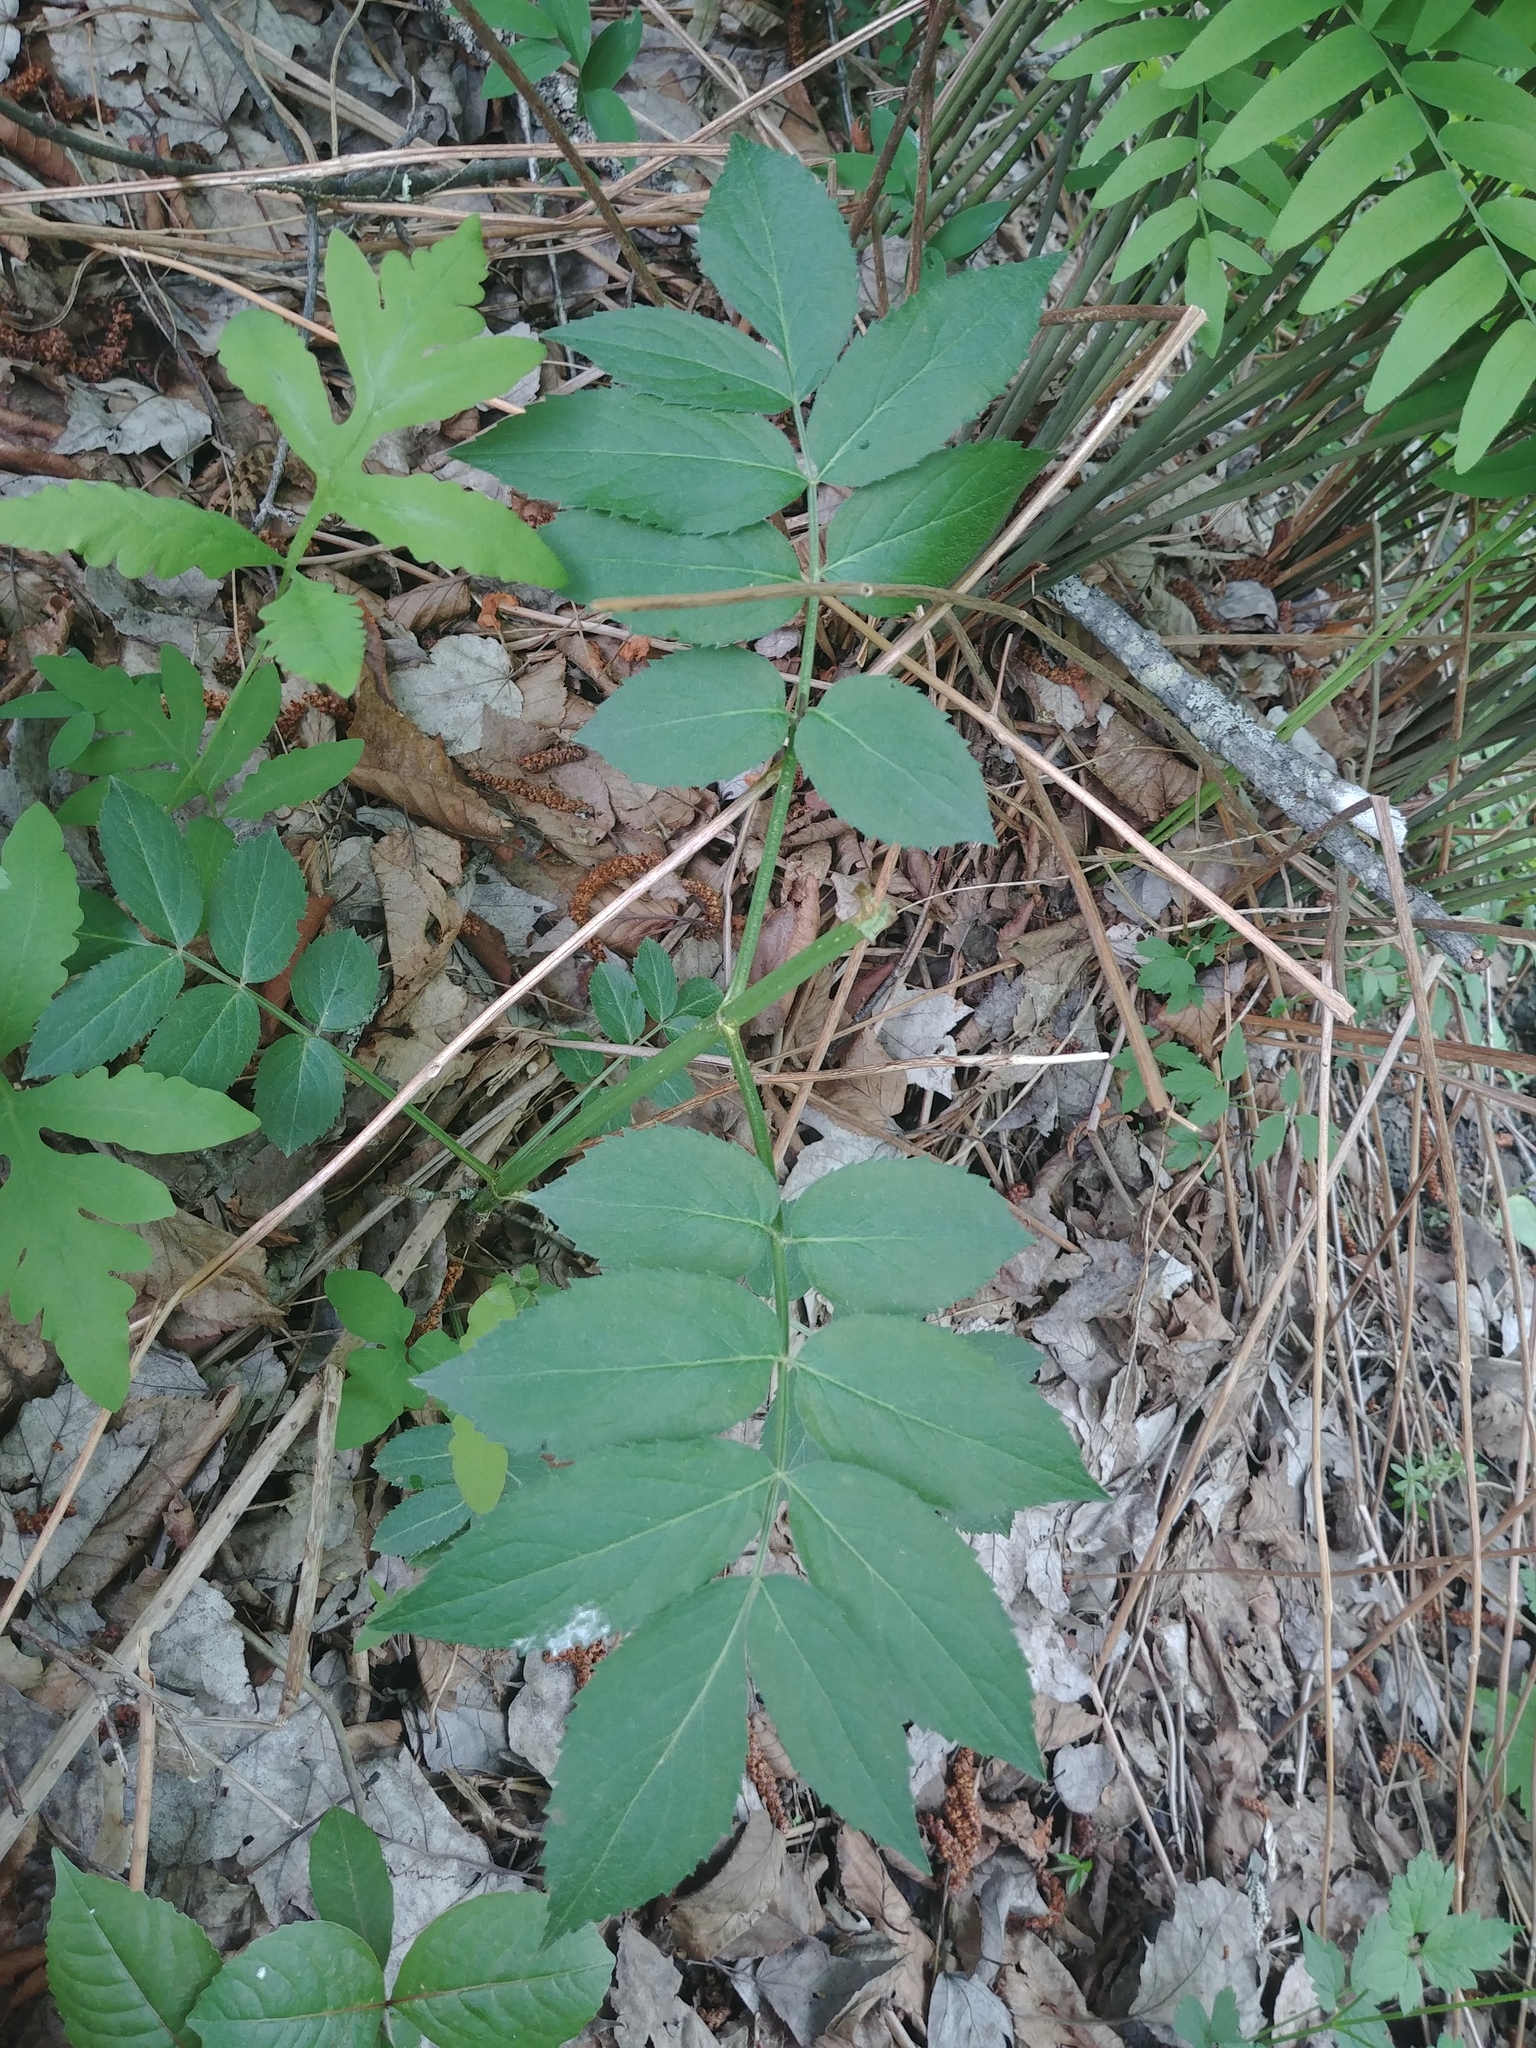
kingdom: Plantae
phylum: Tracheophyta
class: Magnoliopsida
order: Dipsacales
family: Viburnaceae
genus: Sambucus
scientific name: Sambucus racemosa
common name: Red-berried elder
